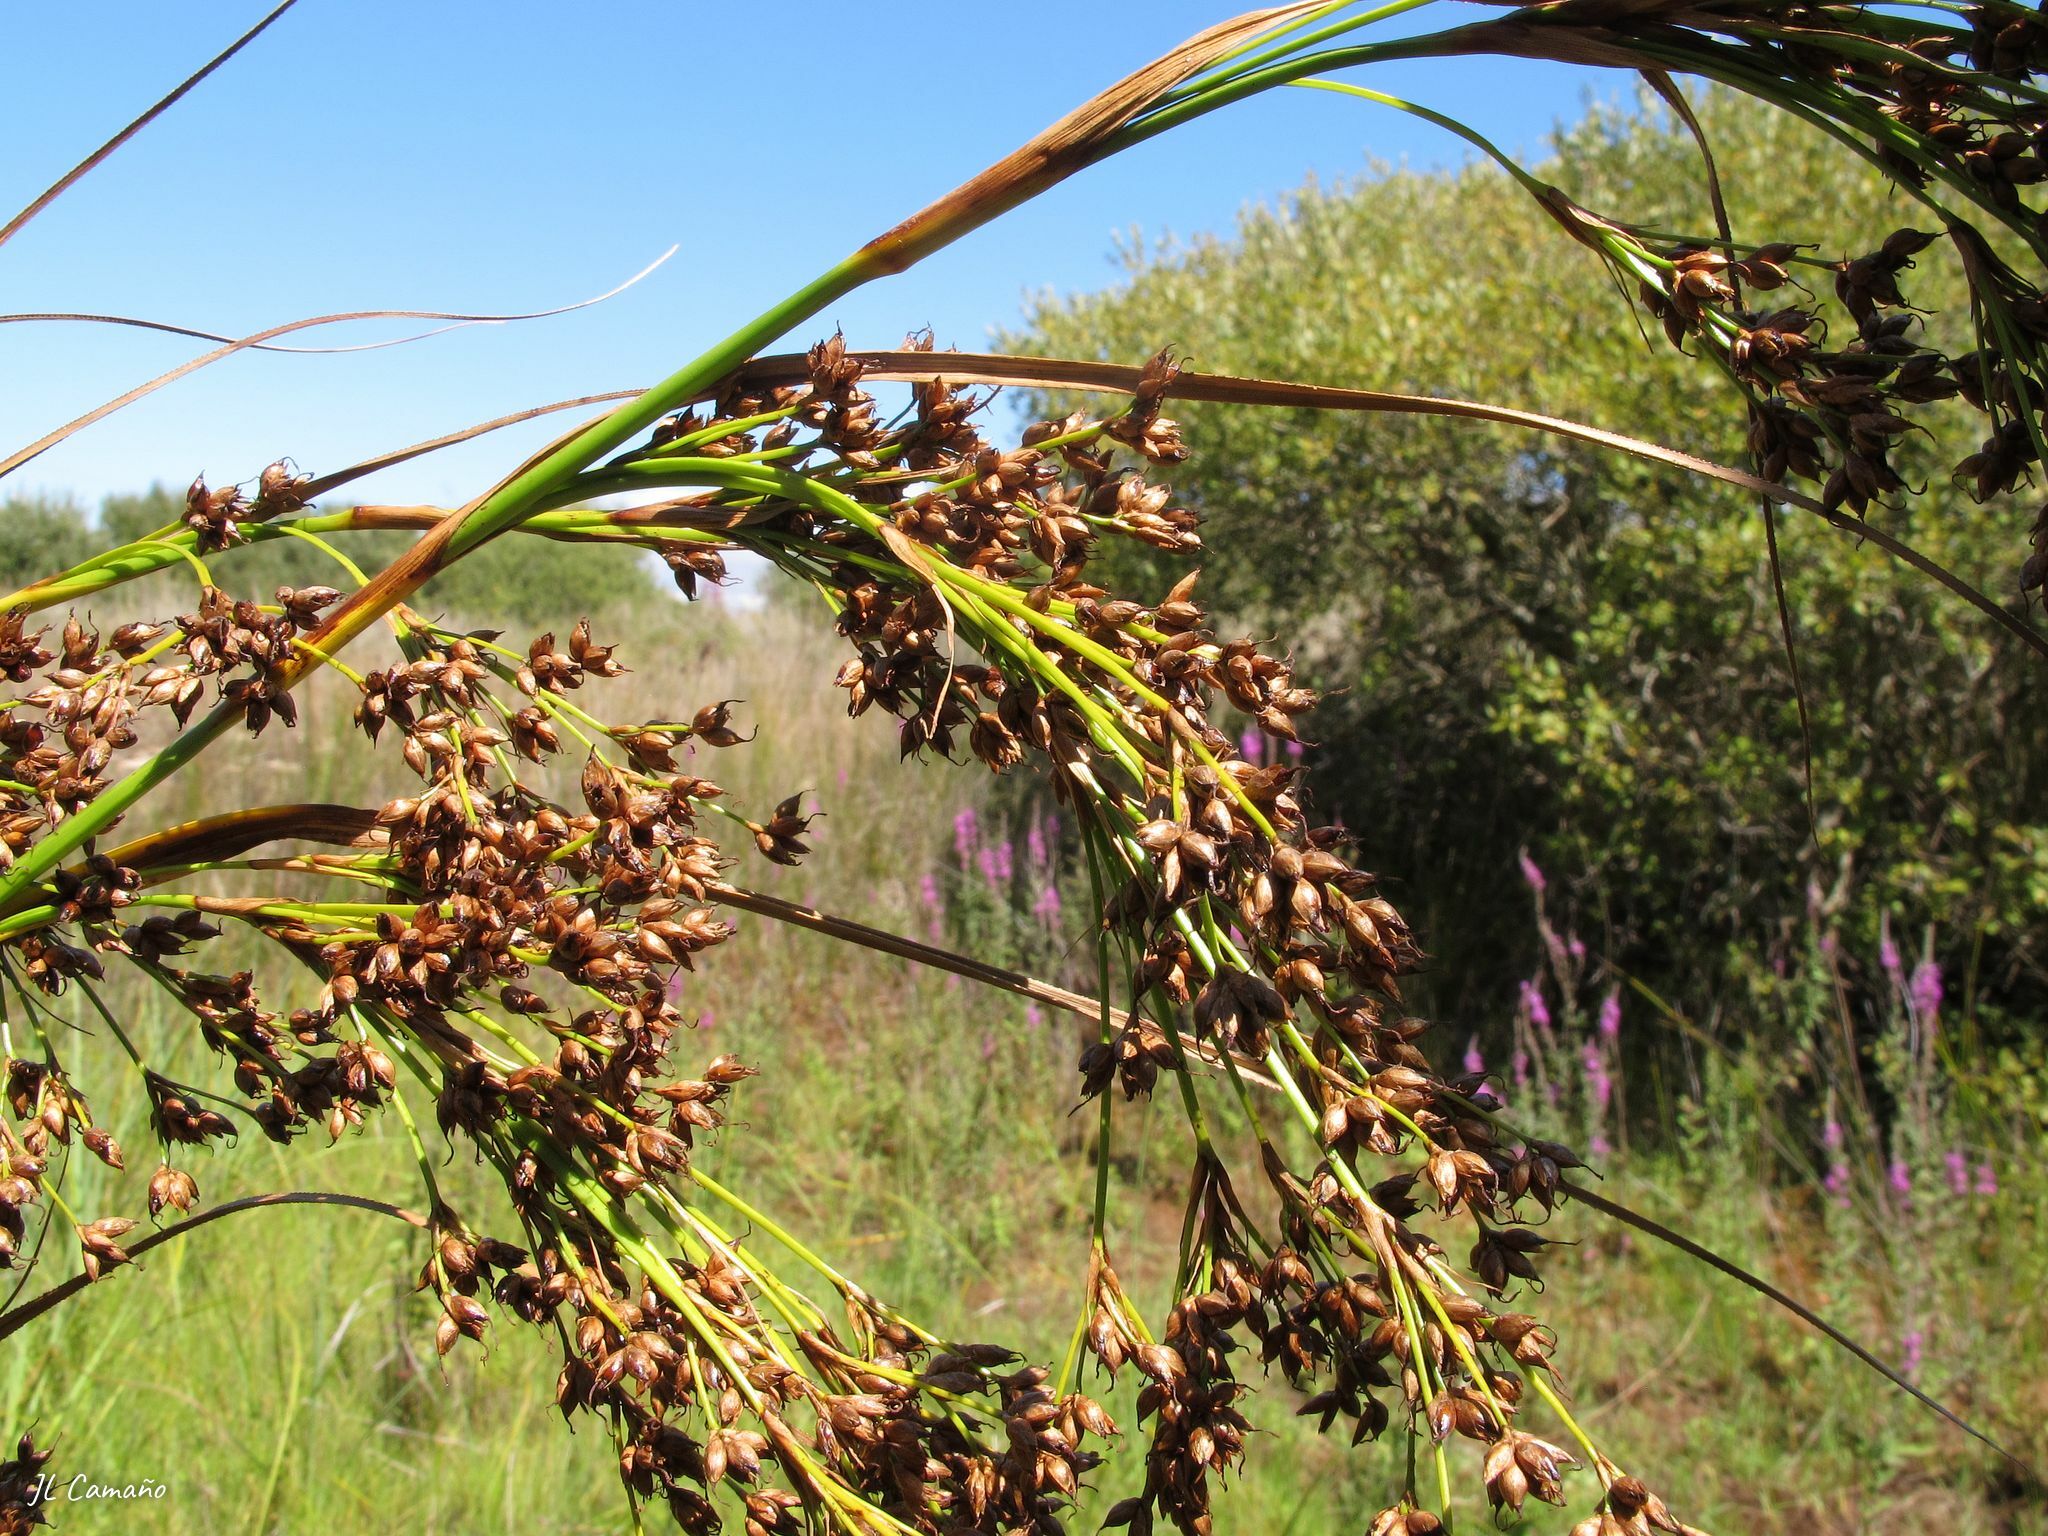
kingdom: Plantae
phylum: Tracheophyta
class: Liliopsida
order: Poales
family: Cyperaceae
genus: Cladium
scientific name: Cladium mariscus
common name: Great fen-sedge
